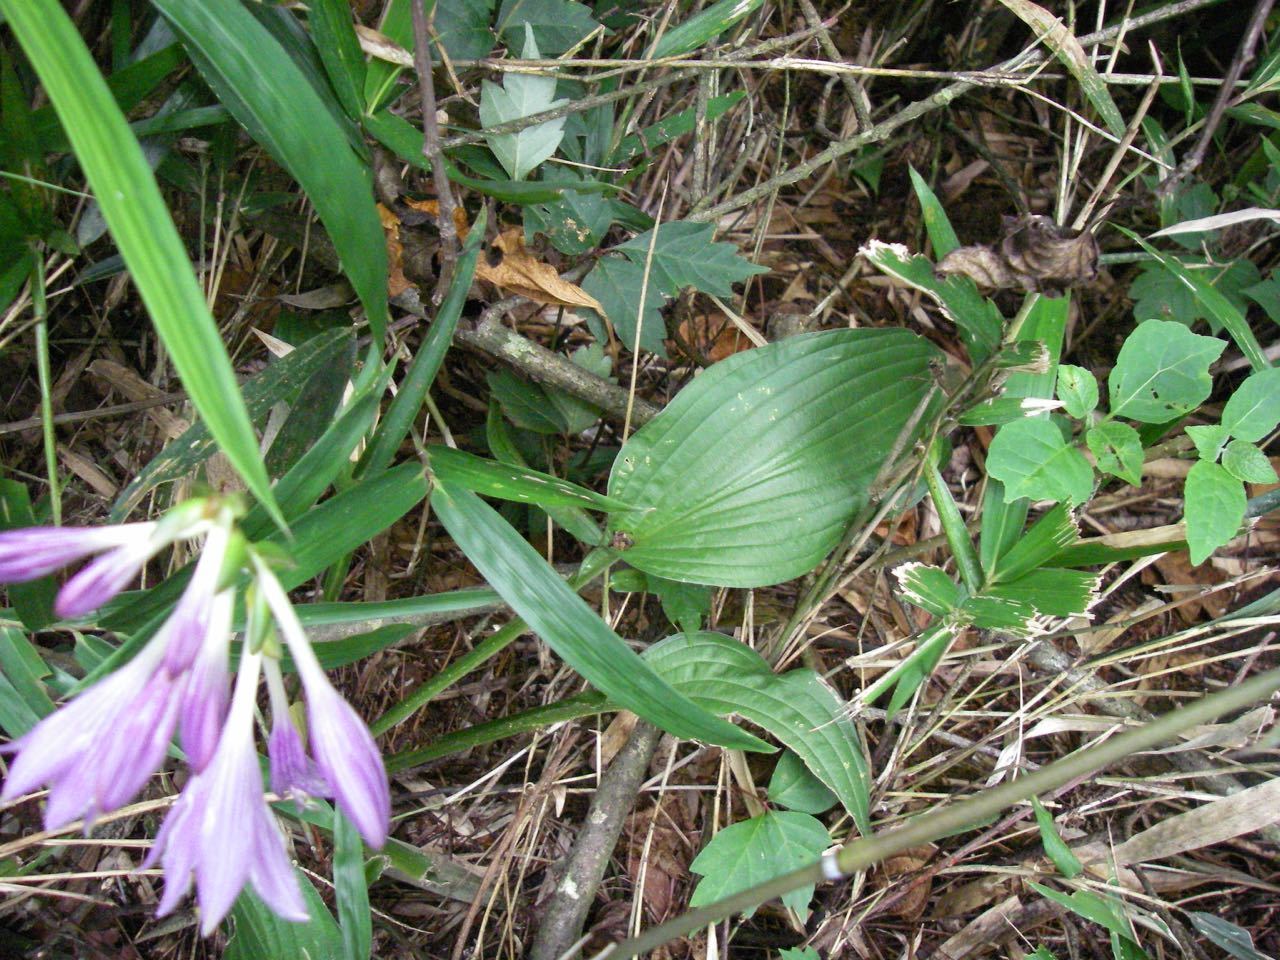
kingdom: Plantae
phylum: Tracheophyta
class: Liliopsida
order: Asparagales
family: Asparagaceae
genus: Hosta
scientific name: Hosta sieboldii
